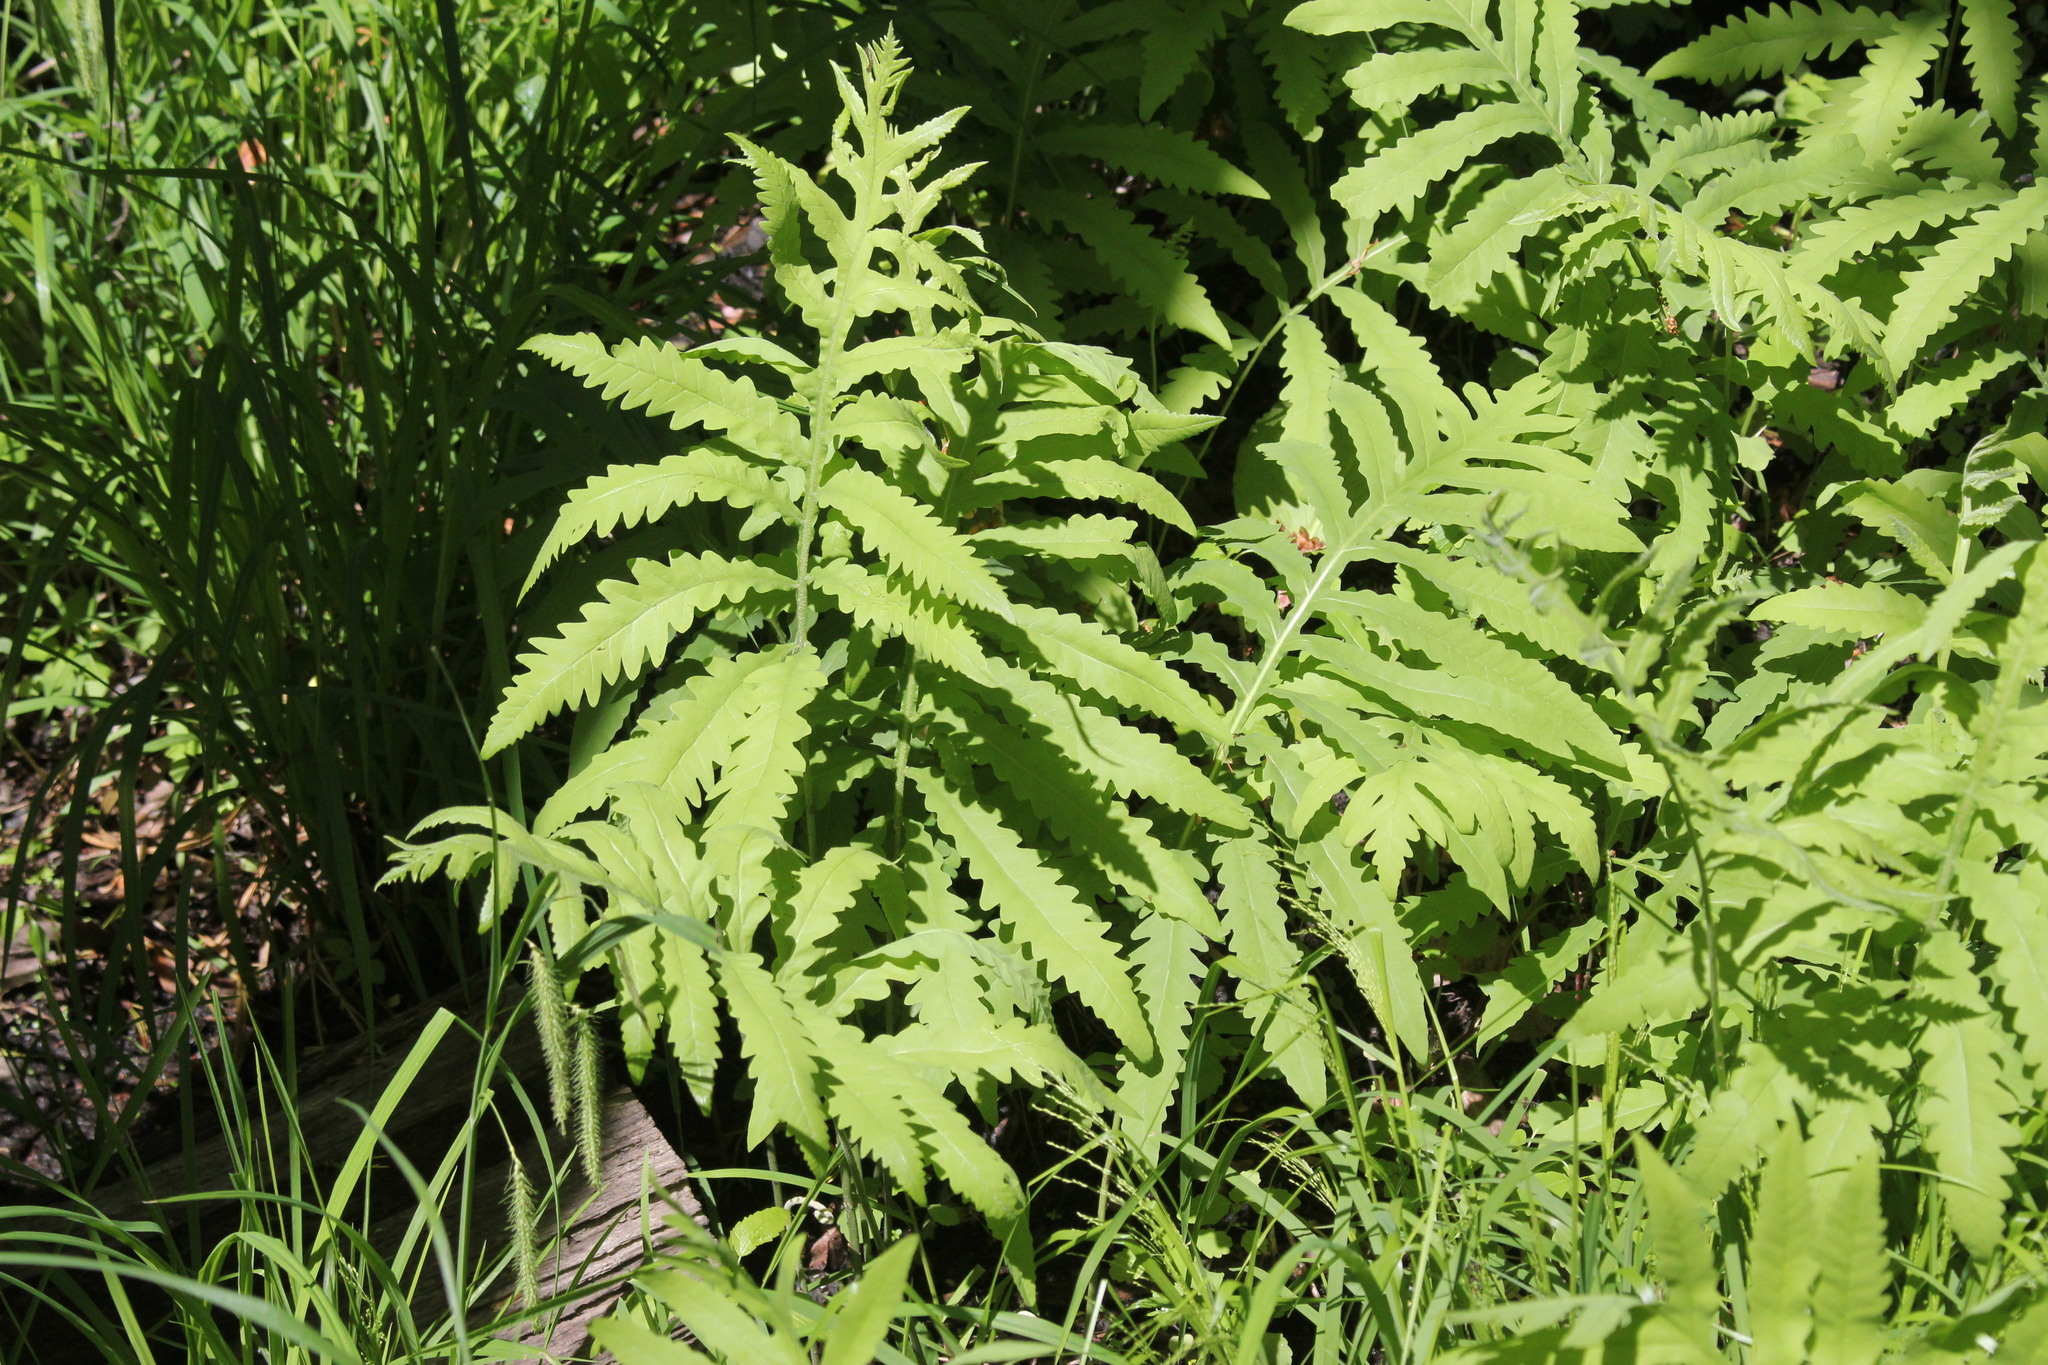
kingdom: Plantae
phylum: Tracheophyta
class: Polypodiopsida
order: Polypodiales
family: Onocleaceae
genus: Onoclea
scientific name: Onoclea sensibilis
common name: Sensitive fern
